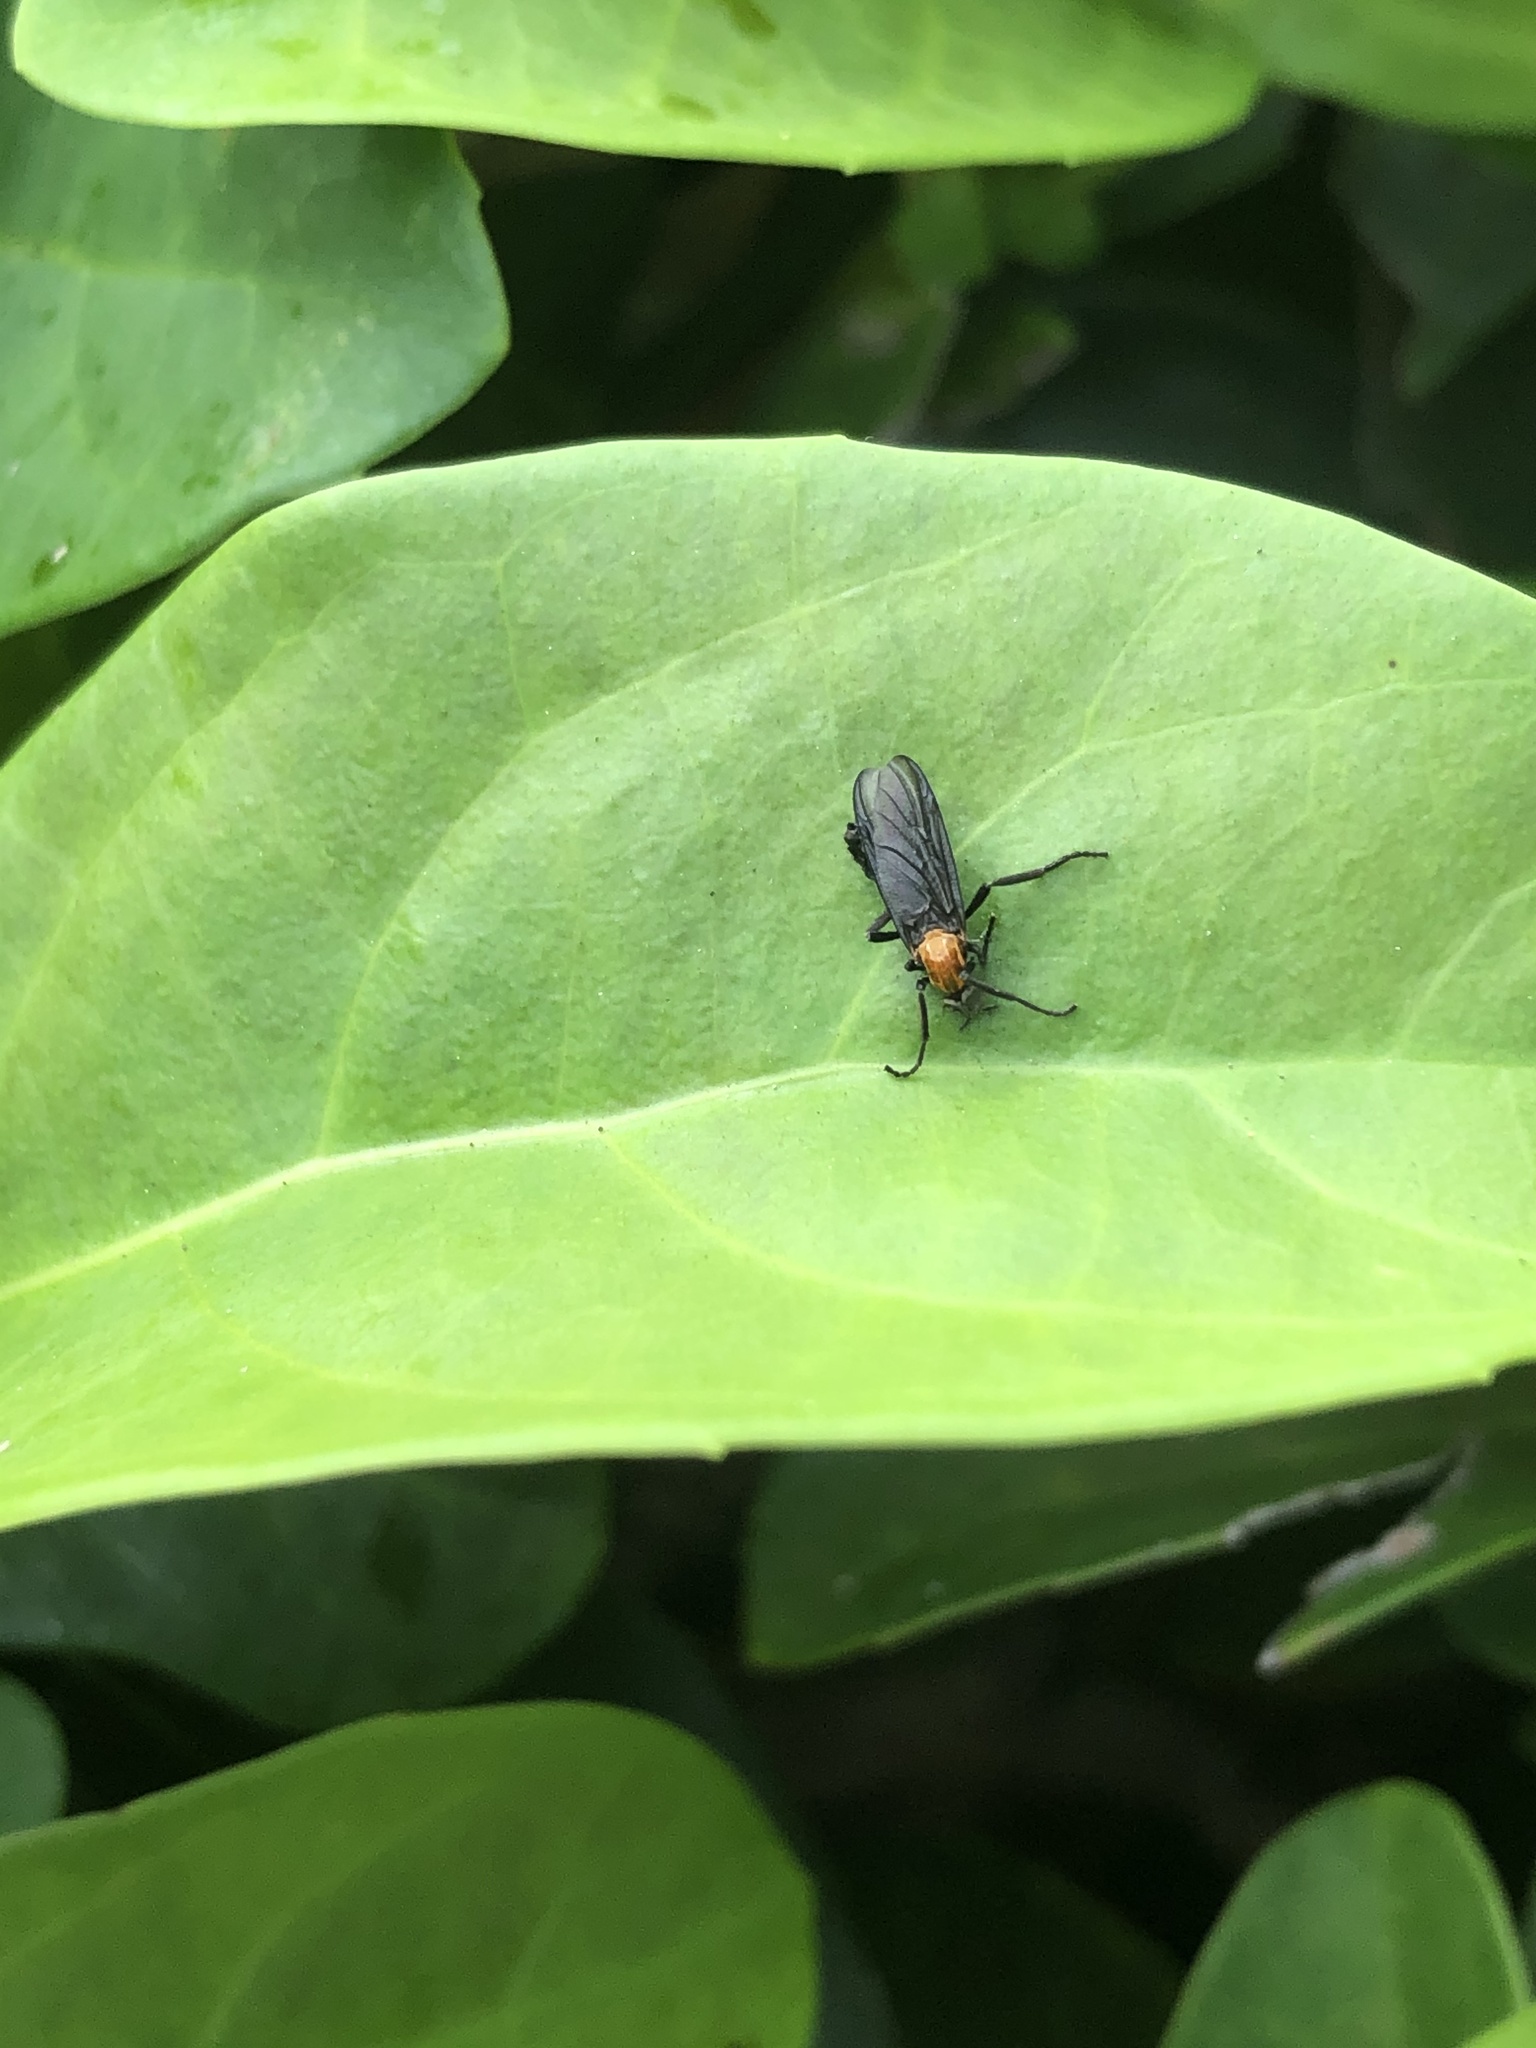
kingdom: Animalia
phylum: Arthropoda
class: Insecta
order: Diptera
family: Bibionidae
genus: Plecia
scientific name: Plecia nearctica
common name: March fly
